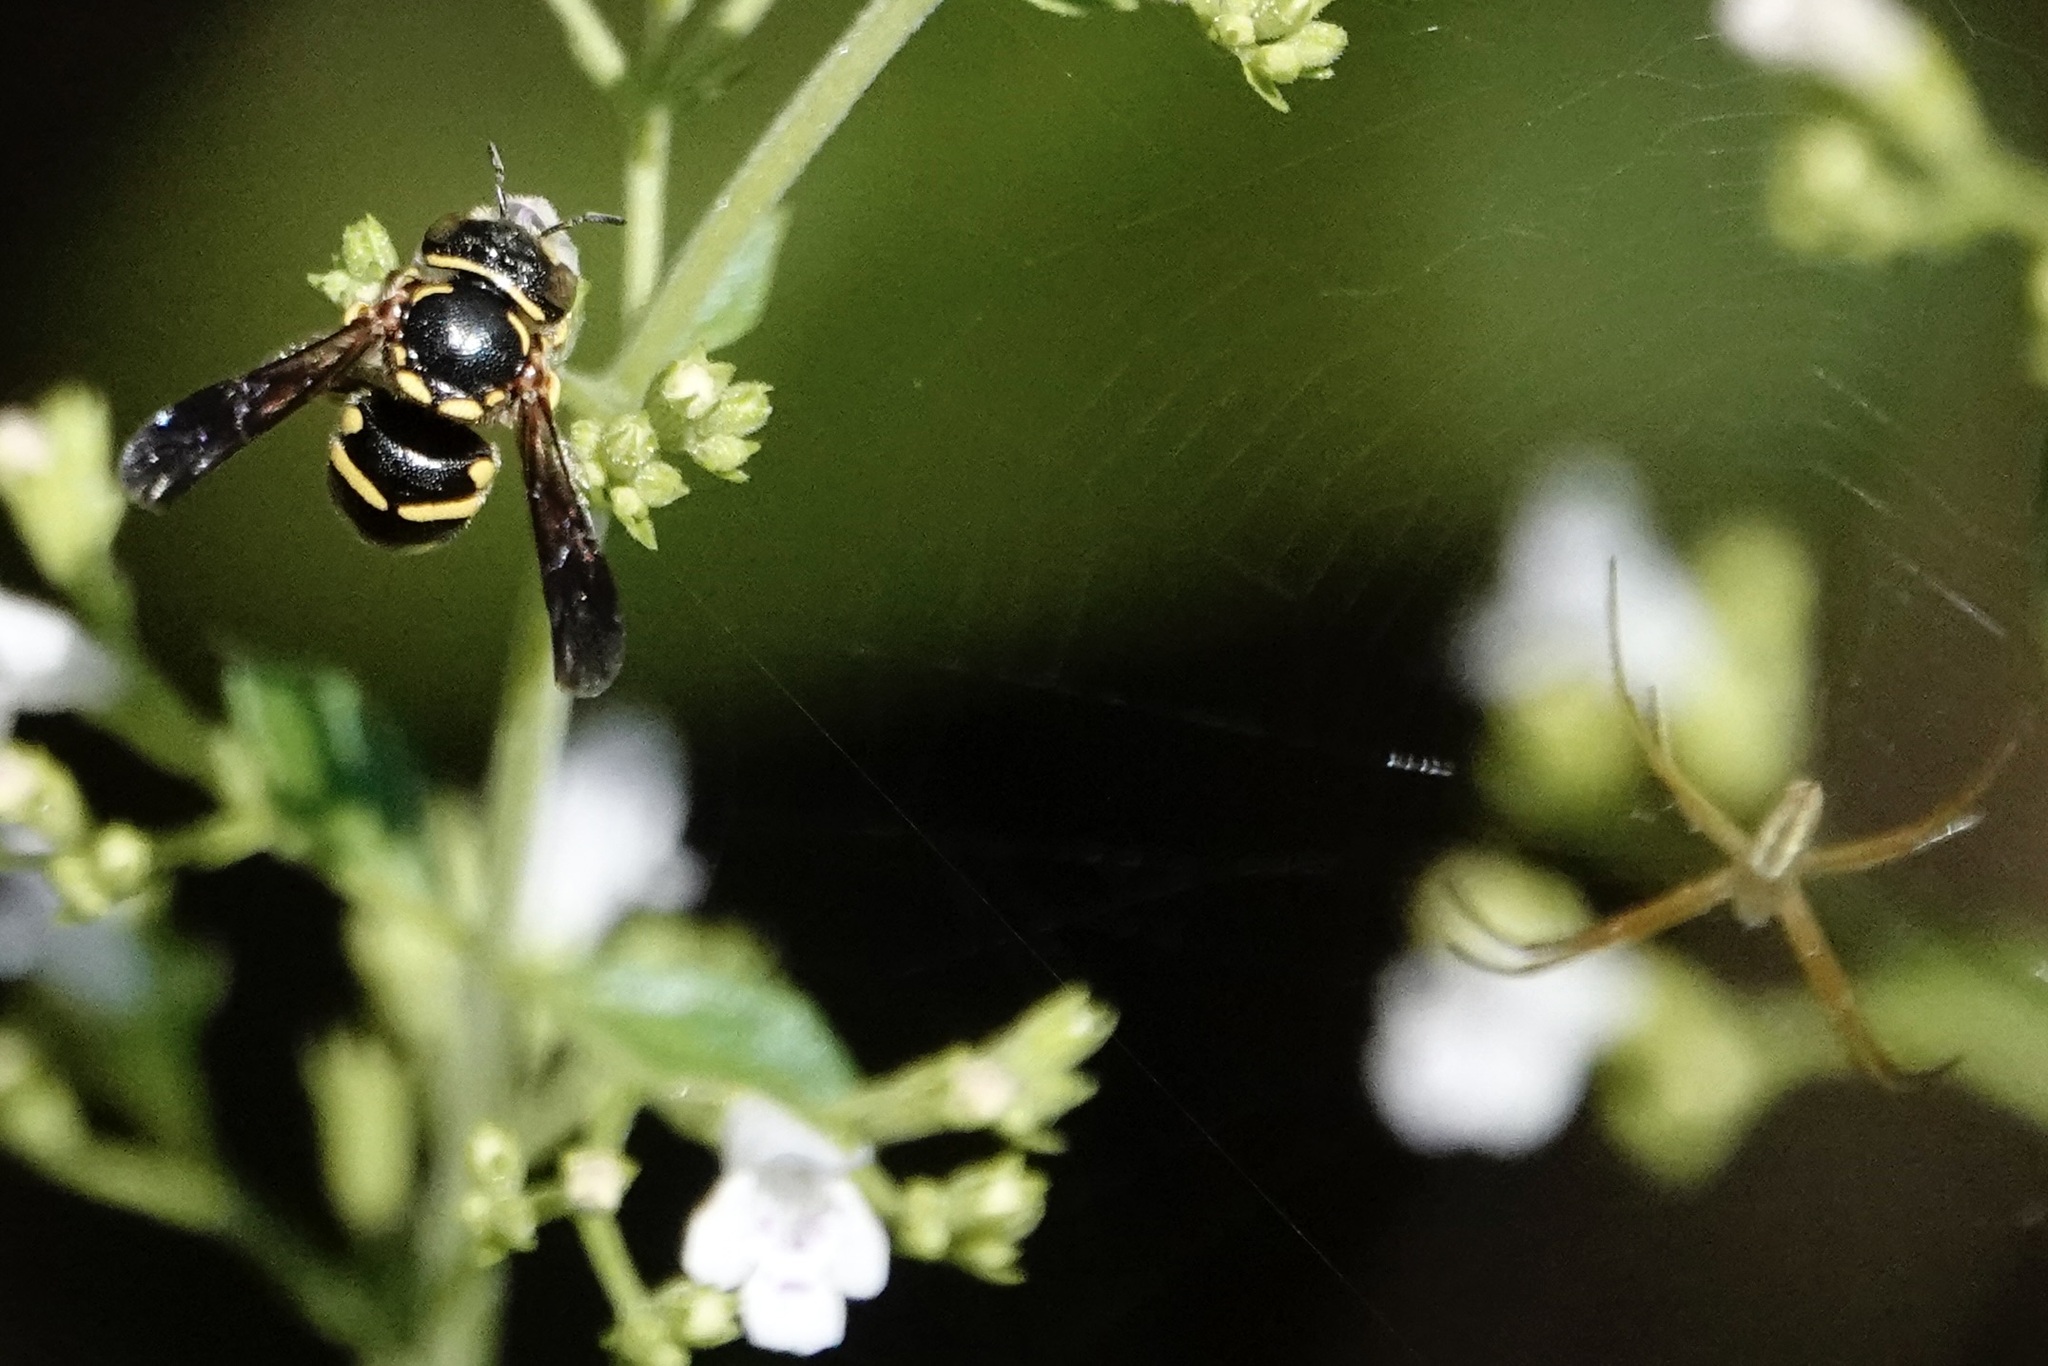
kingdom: Animalia
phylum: Arthropoda
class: Insecta
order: Hymenoptera
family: Megachilidae
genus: Anthidiellum
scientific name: Anthidiellum notatum
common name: Northern rotund-resin bee
